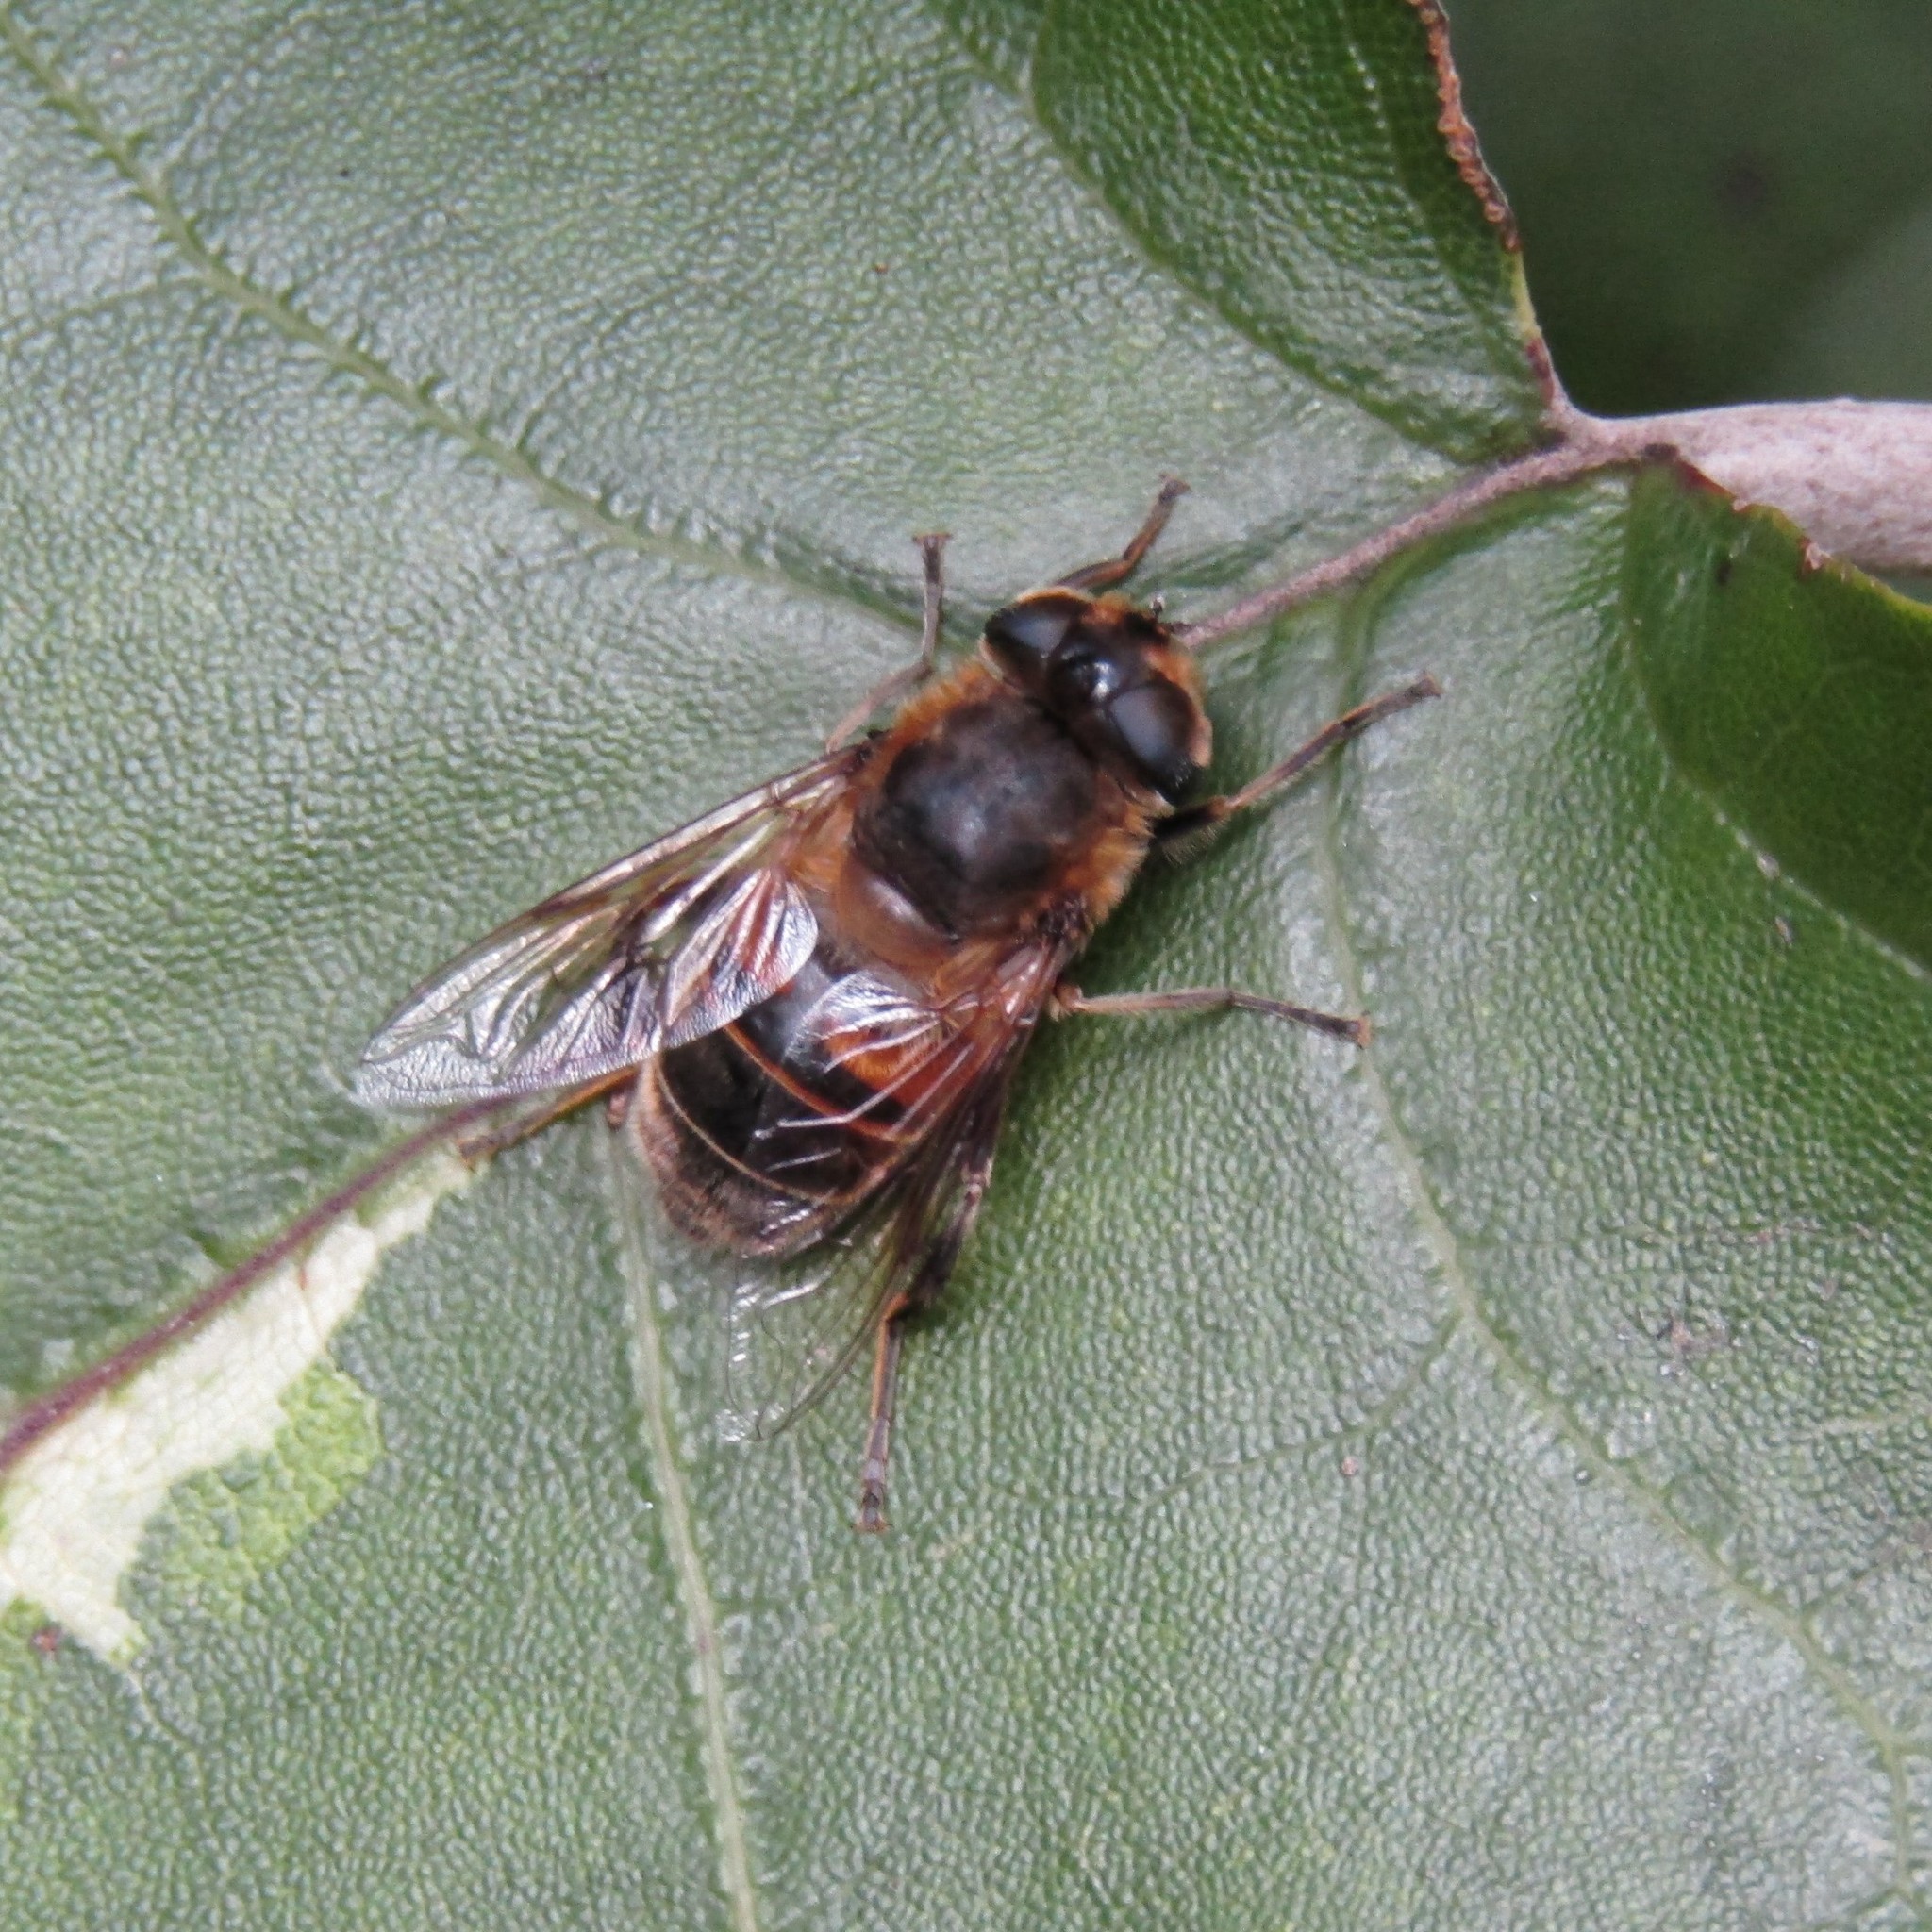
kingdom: Animalia
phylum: Arthropoda
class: Insecta
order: Diptera
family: Syrphidae
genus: Eristalis
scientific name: Eristalis tenax
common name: Drone fly
